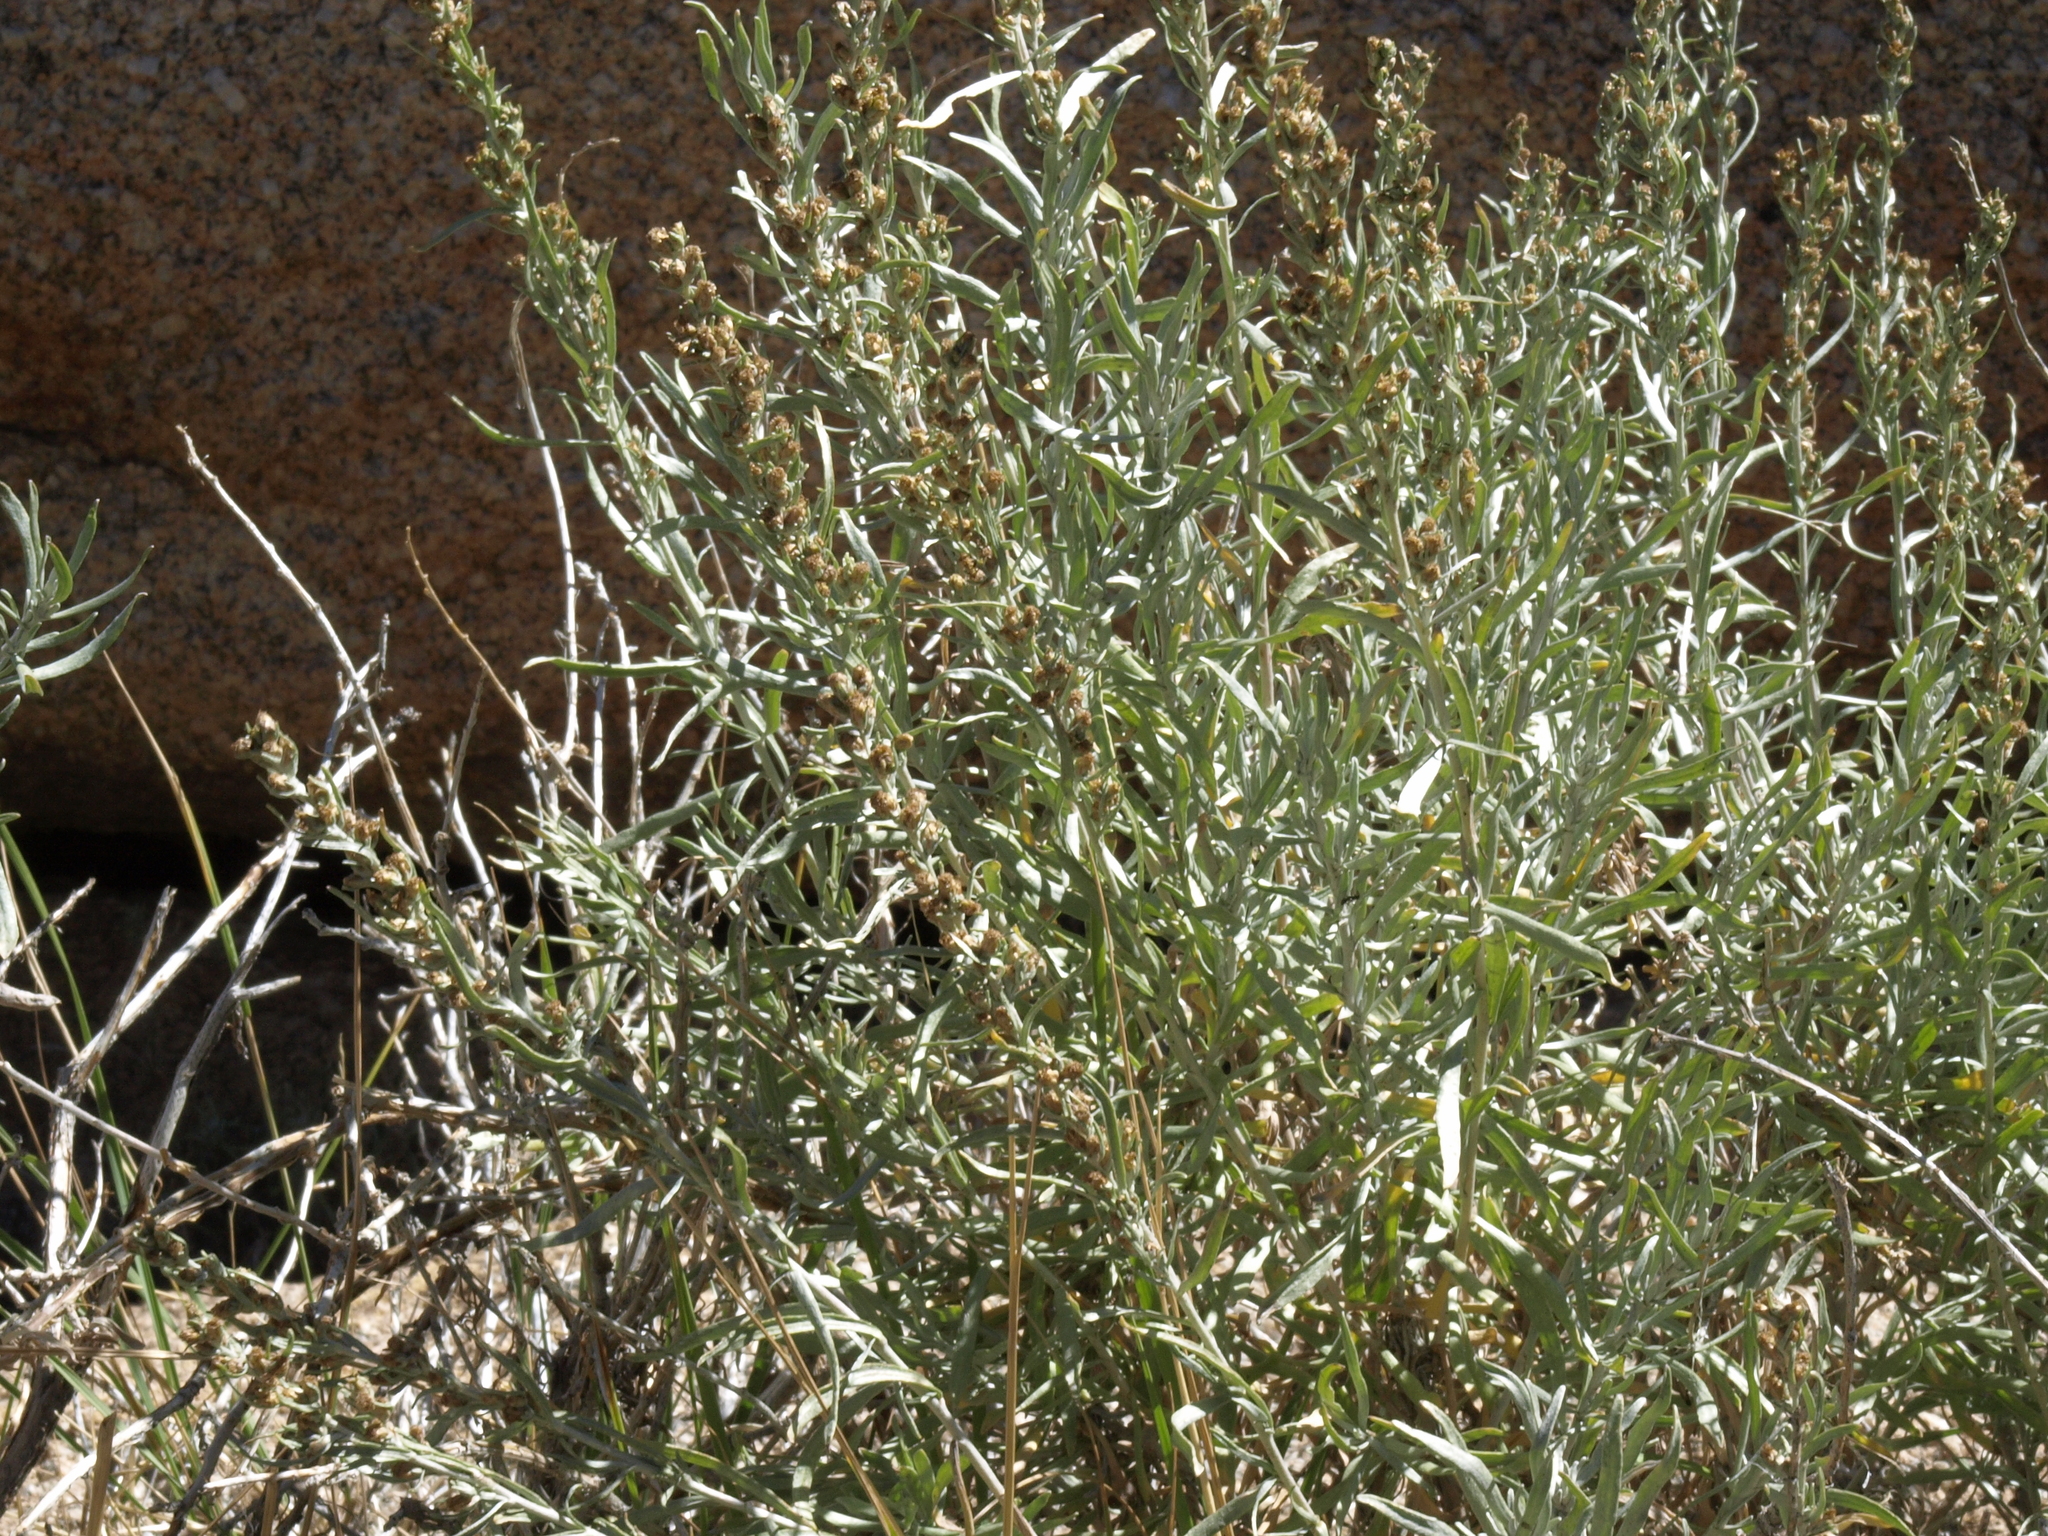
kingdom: Plantae
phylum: Tracheophyta
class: Magnoliopsida
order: Asterales
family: Asteraceae
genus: Artemisia
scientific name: Artemisia cana
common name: Silver sagebrush
